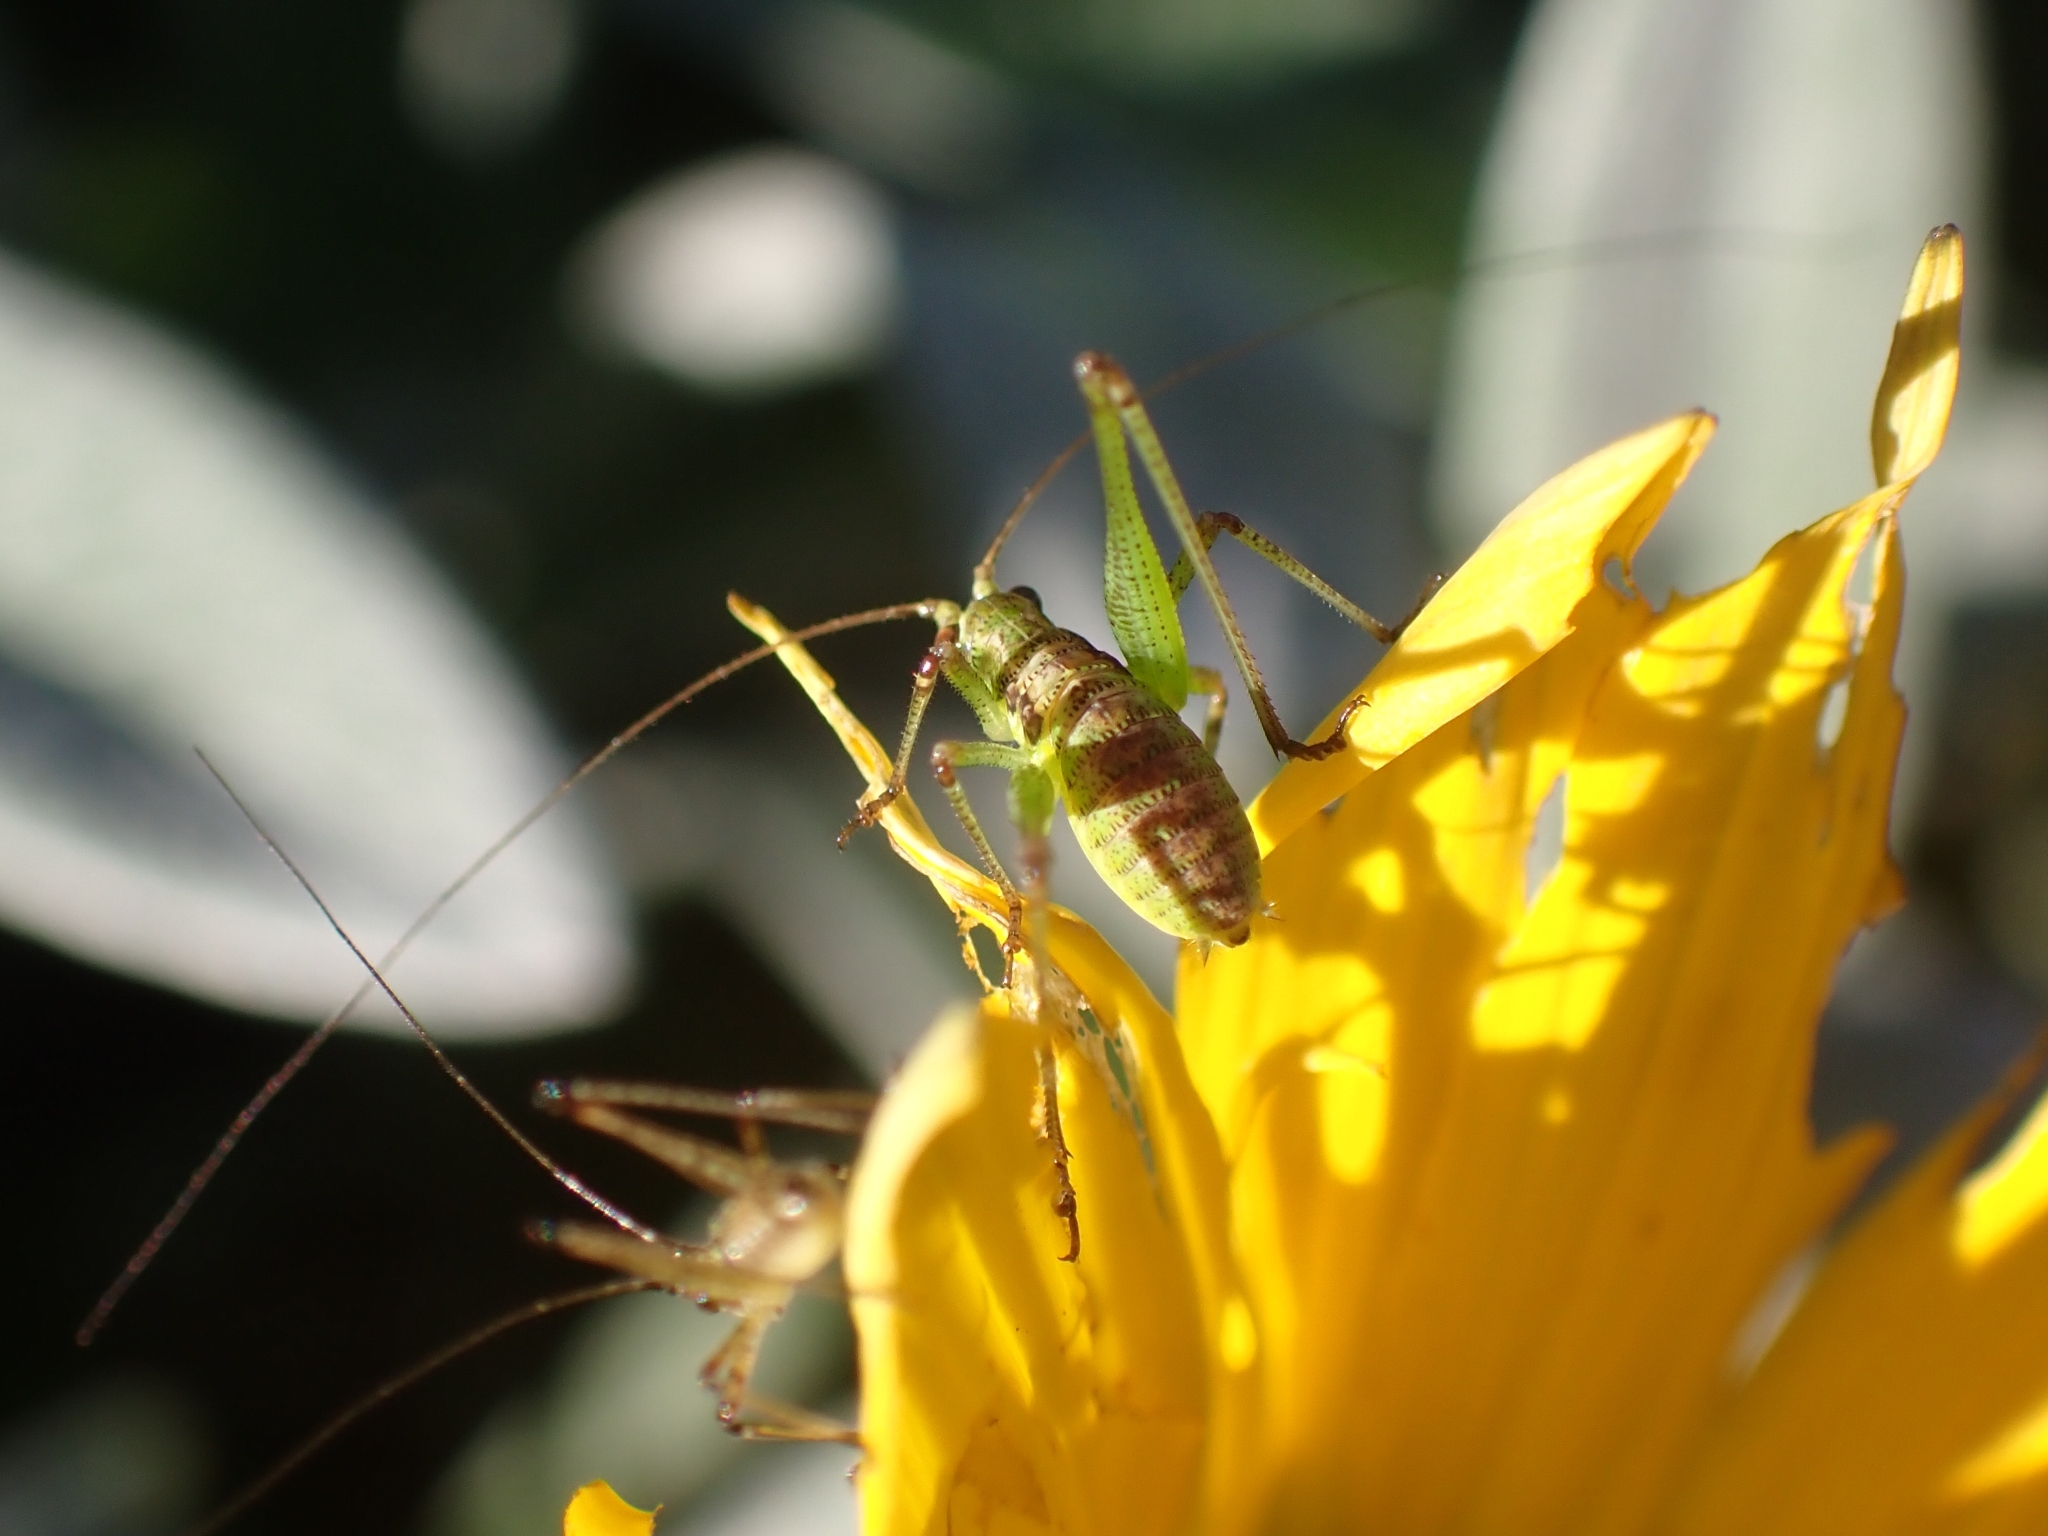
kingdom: Animalia
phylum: Arthropoda
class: Insecta
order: Orthoptera
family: Tettigoniidae
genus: Phaneroptera
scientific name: Phaneroptera sparsa
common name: Sickle-bearing leaf katydid
